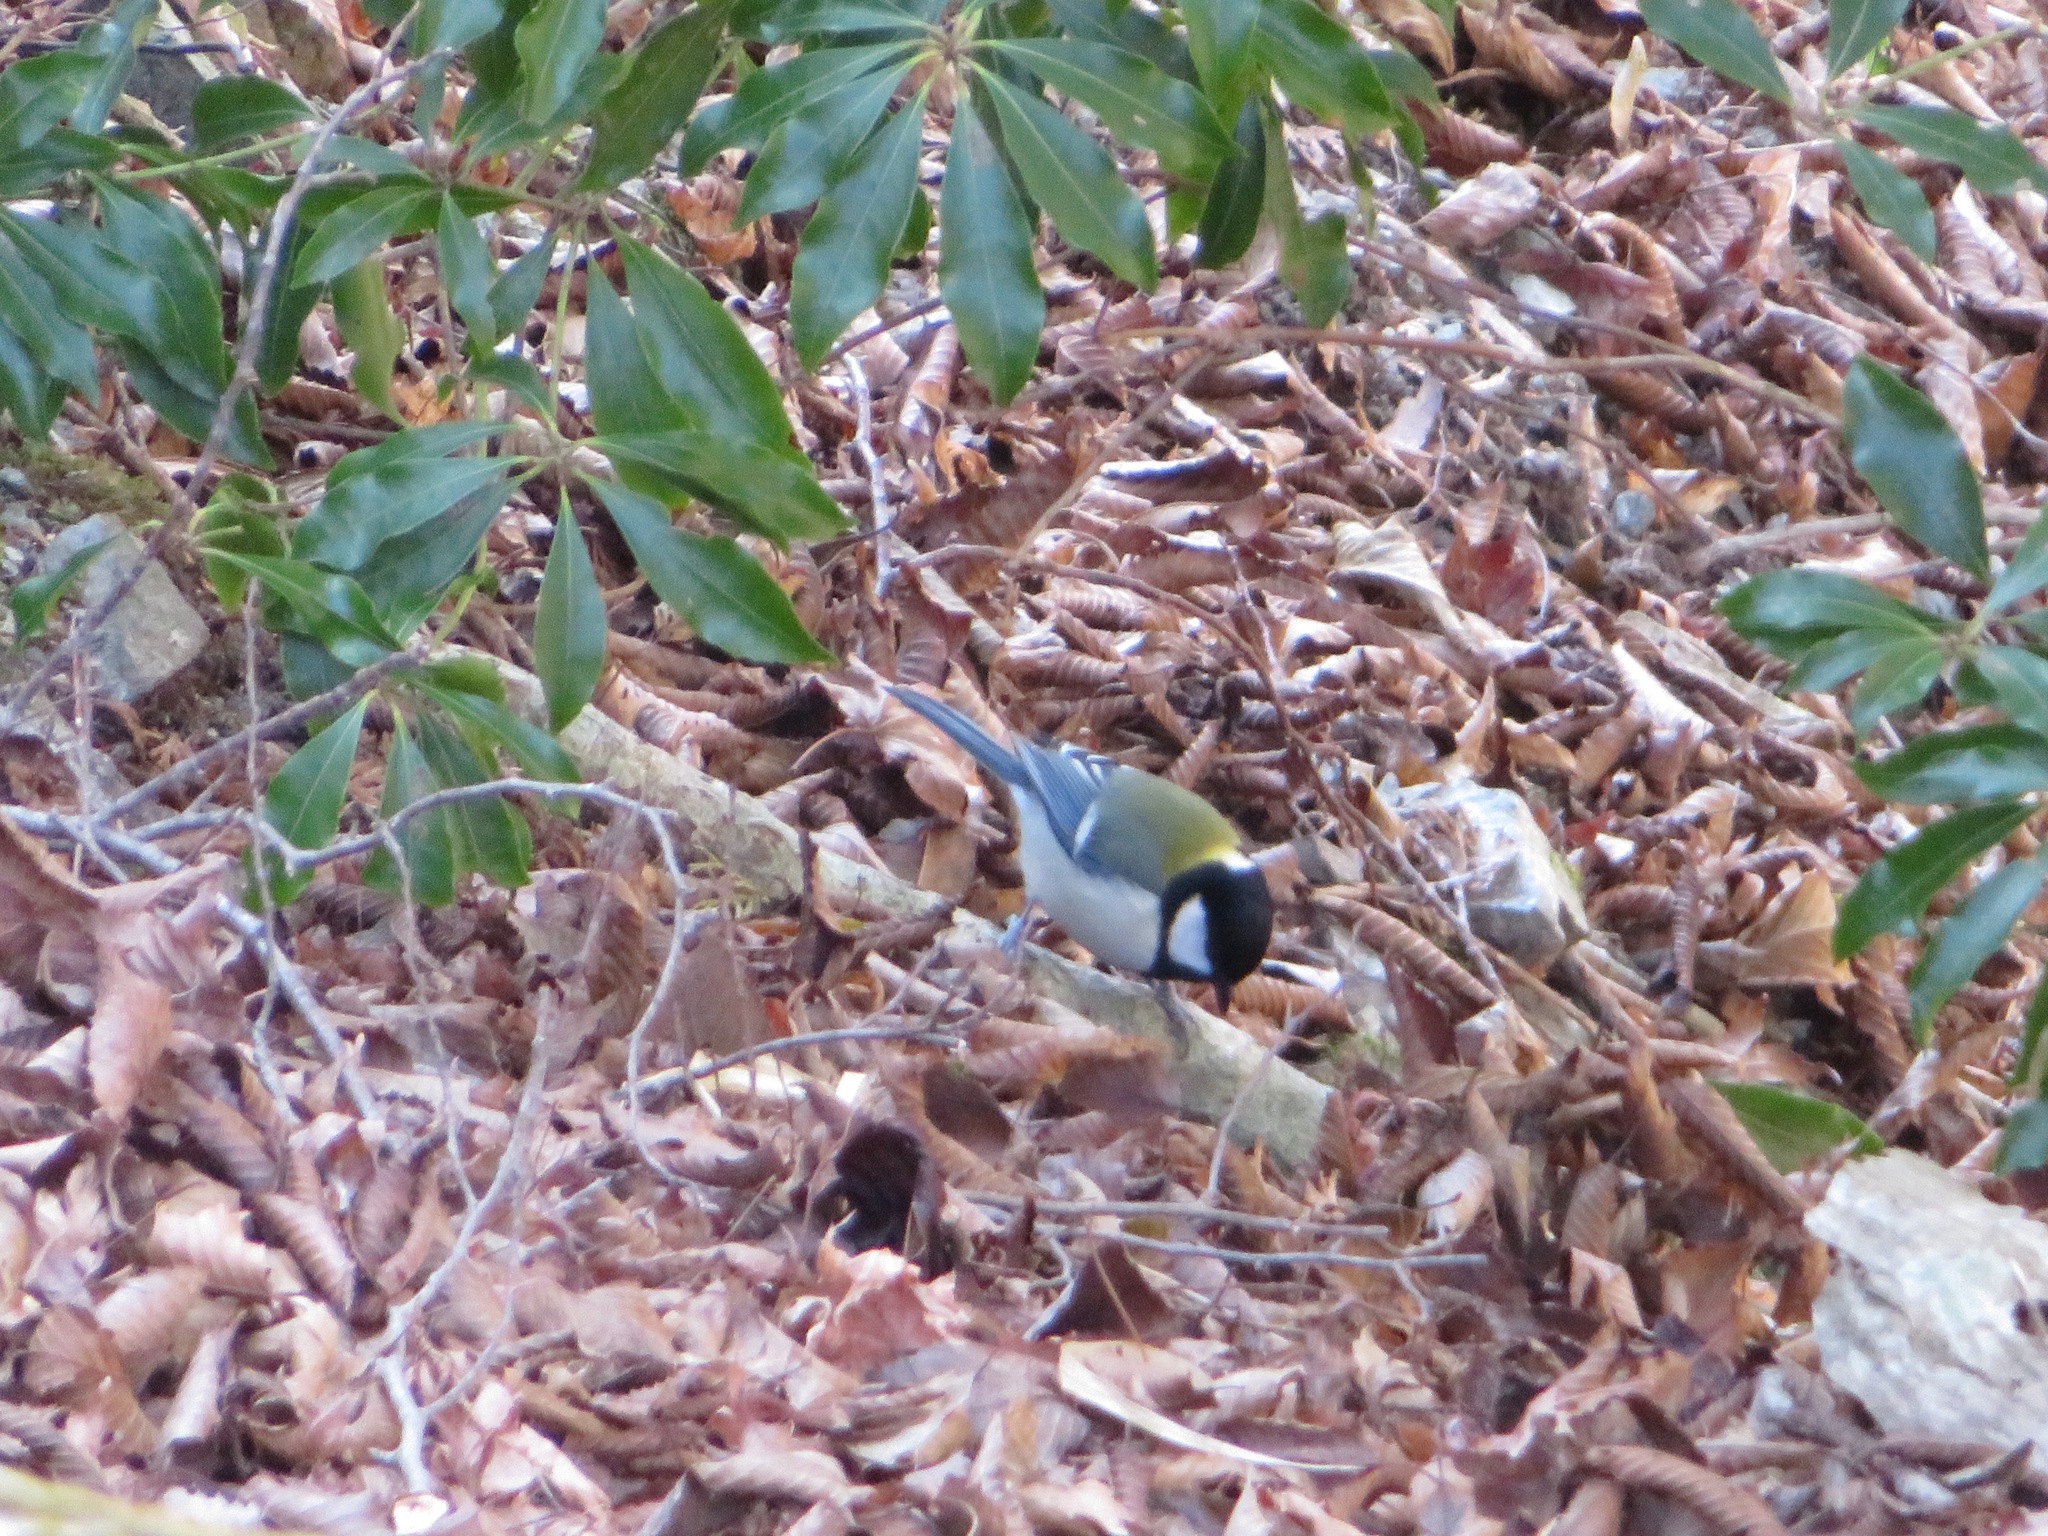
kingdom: Animalia
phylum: Chordata
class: Aves
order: Passeriformes
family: Paridae
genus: Parus
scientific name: Parus minor
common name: Japanese tit
